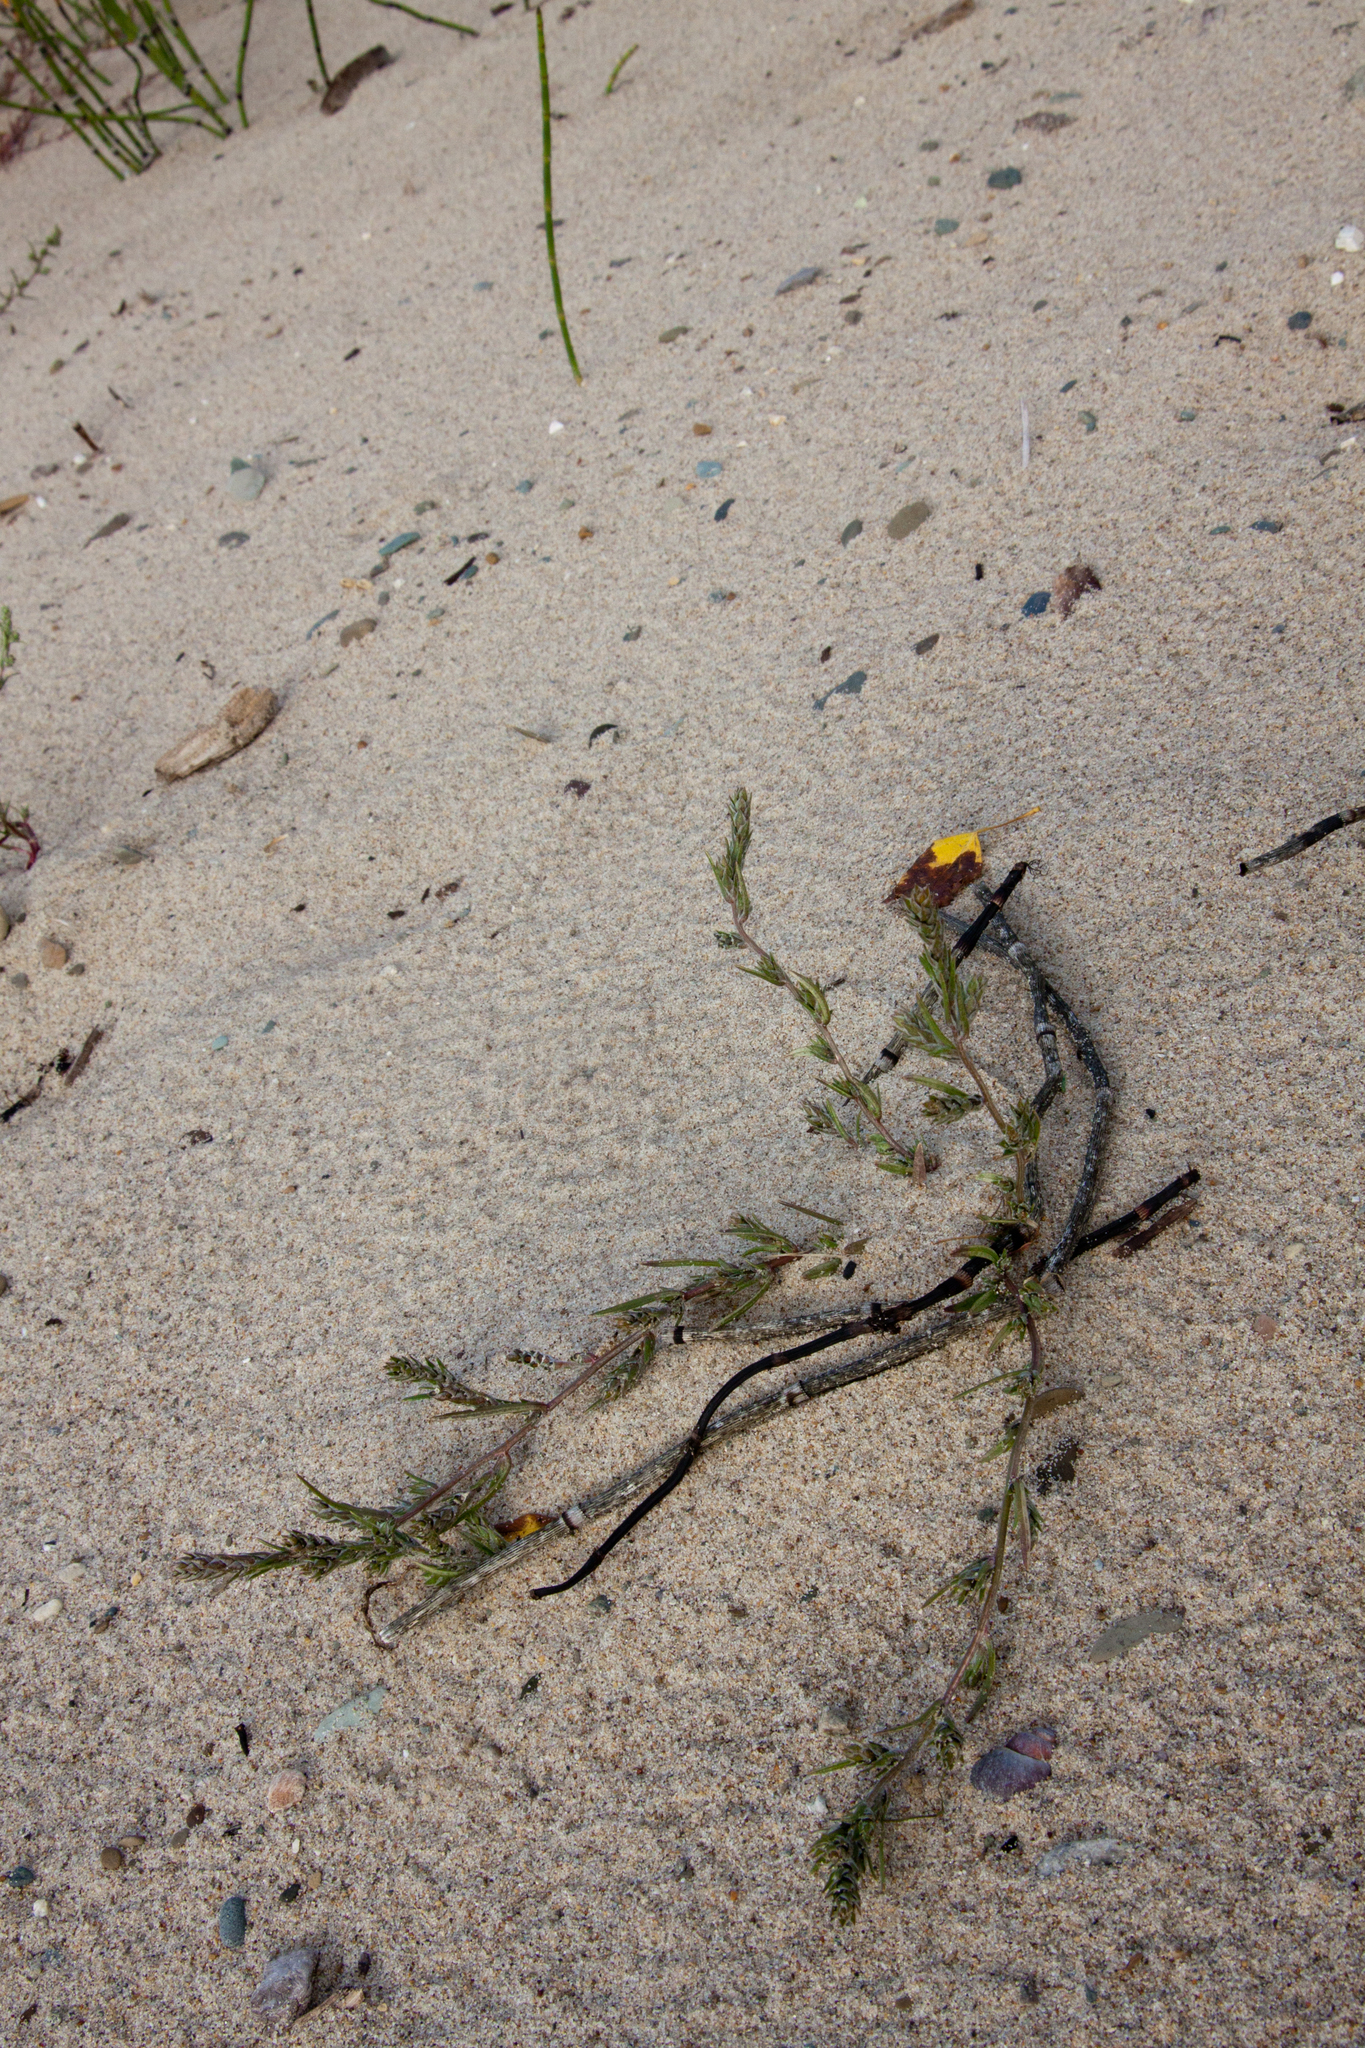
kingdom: Plantae
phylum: Tracheophyta
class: Magnoliopsida
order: Caryophyllales
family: Amaranthaceae
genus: Corispermum
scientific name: Corispermum hyssopifolium
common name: Bugseed
